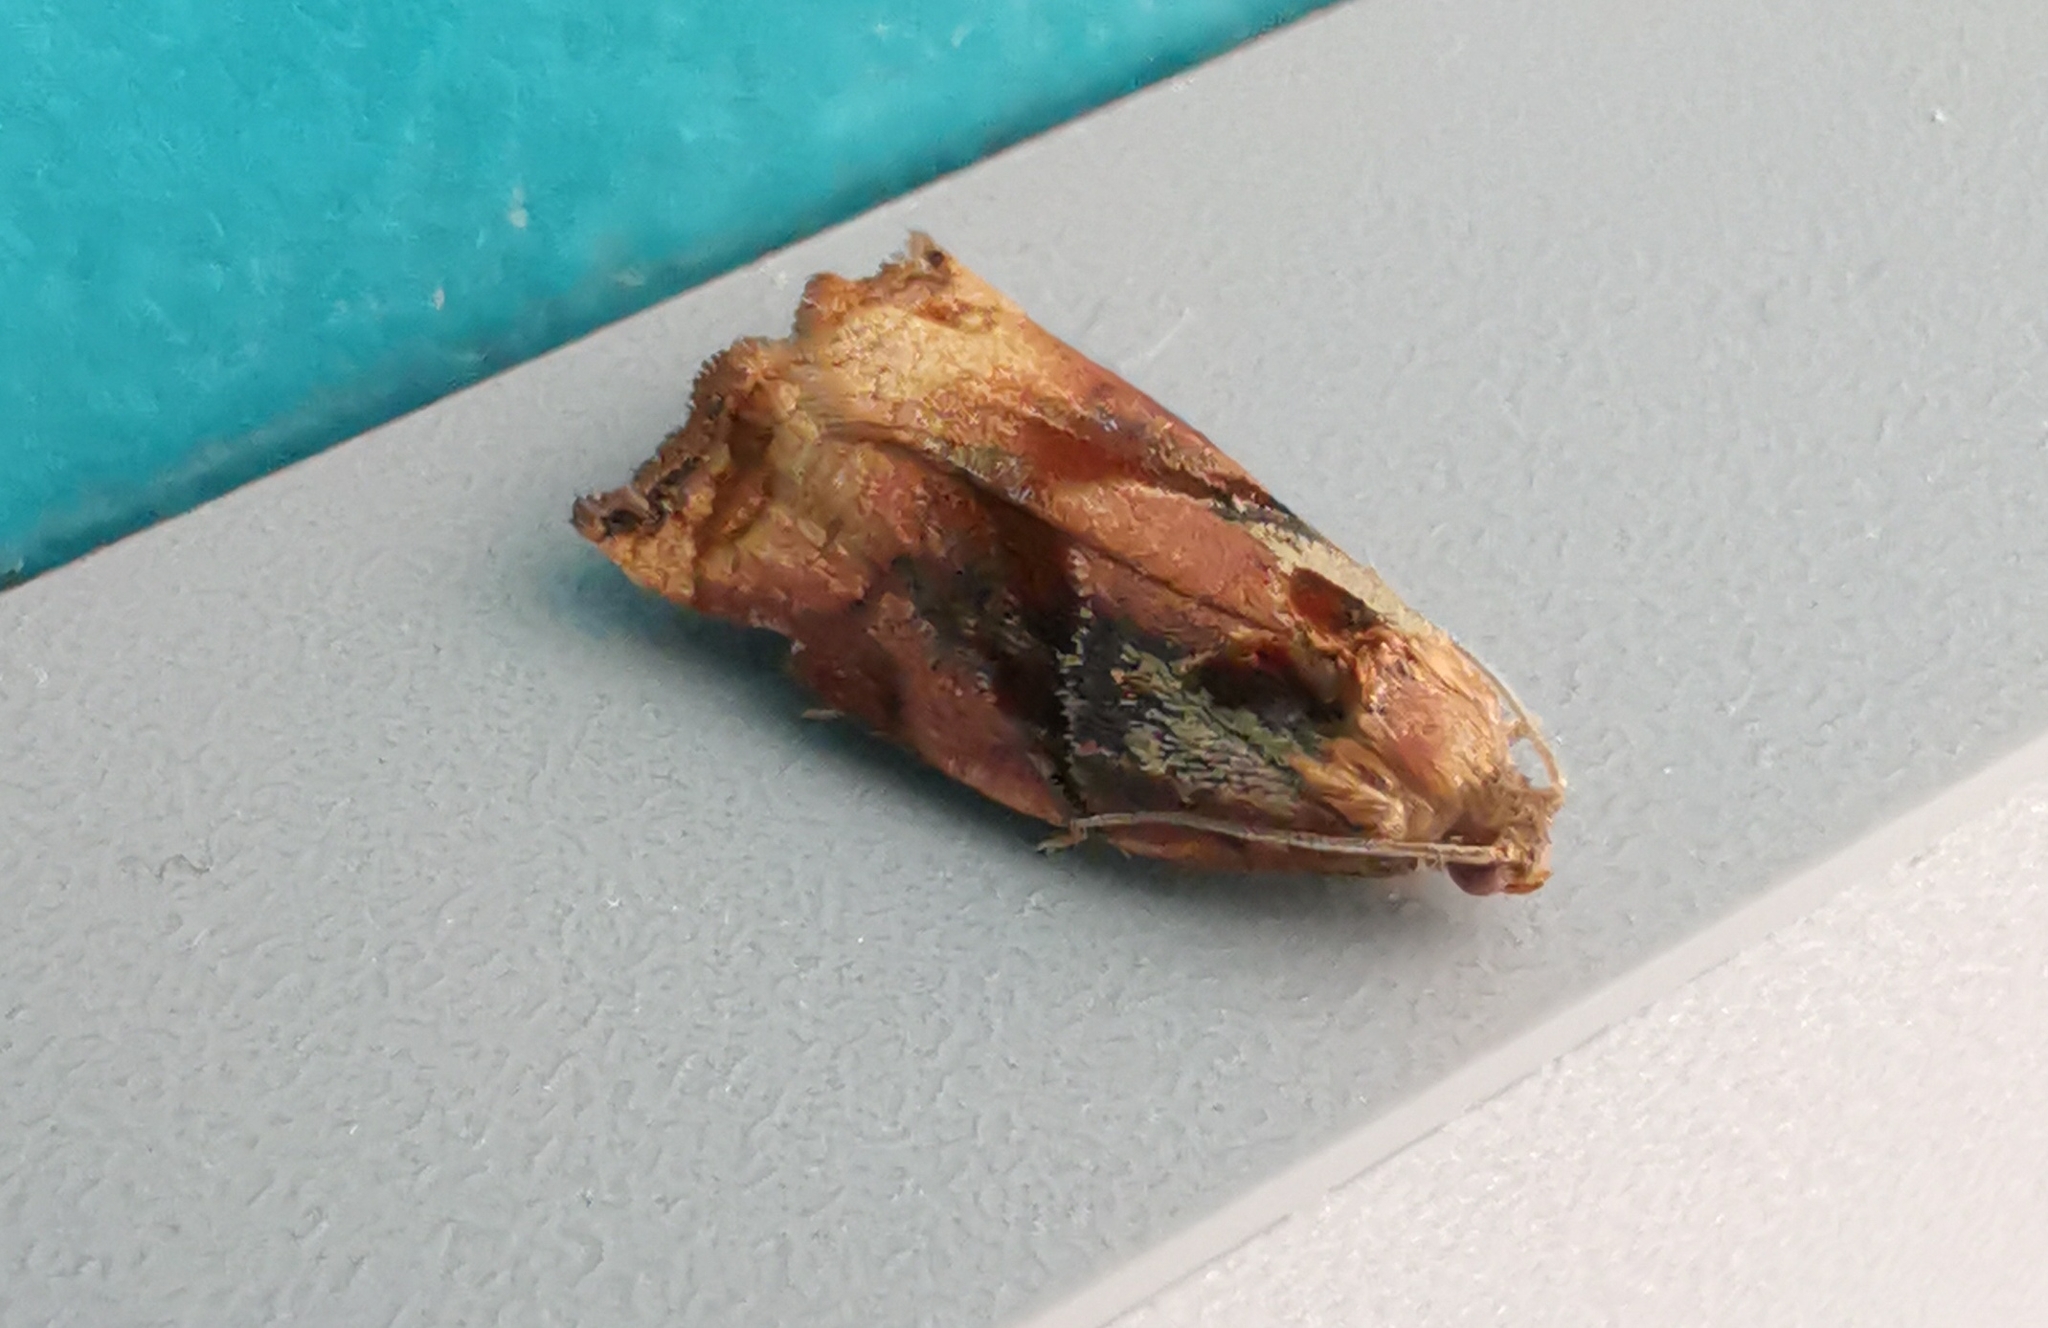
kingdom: Animalia
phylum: Arthropoda
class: Insecta
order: Lepidoptera
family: Tortricidae
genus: Archips
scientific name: Archips podana
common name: Large fruit-tree tortrix
